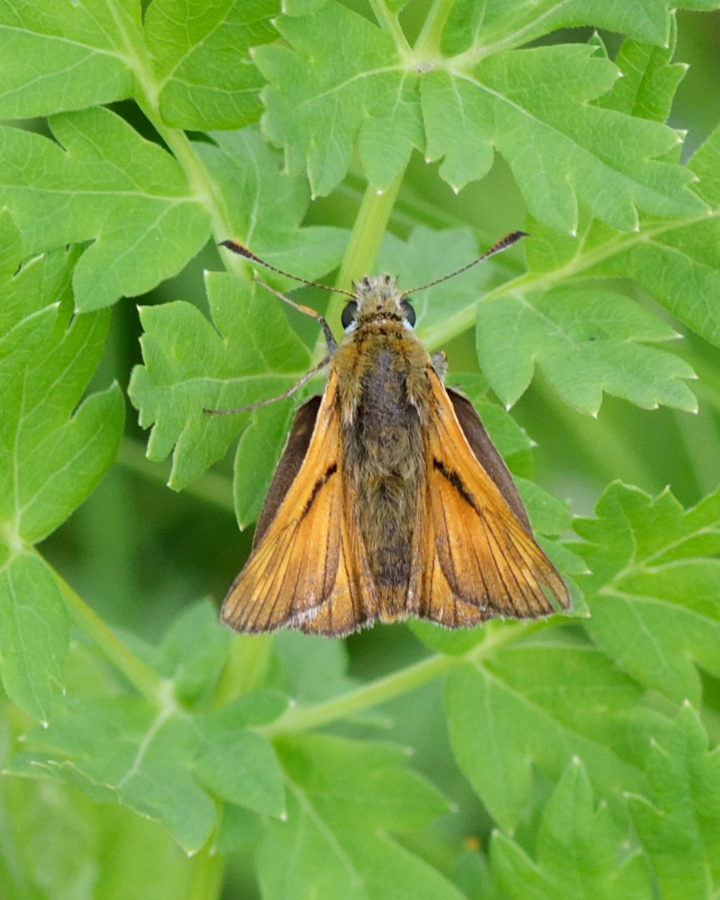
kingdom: Animalia
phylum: Arthropoda
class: Insecta
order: Lepidoptera
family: Hesperiidae
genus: Ochlodes
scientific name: Ochlodes venata
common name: Large skipper
